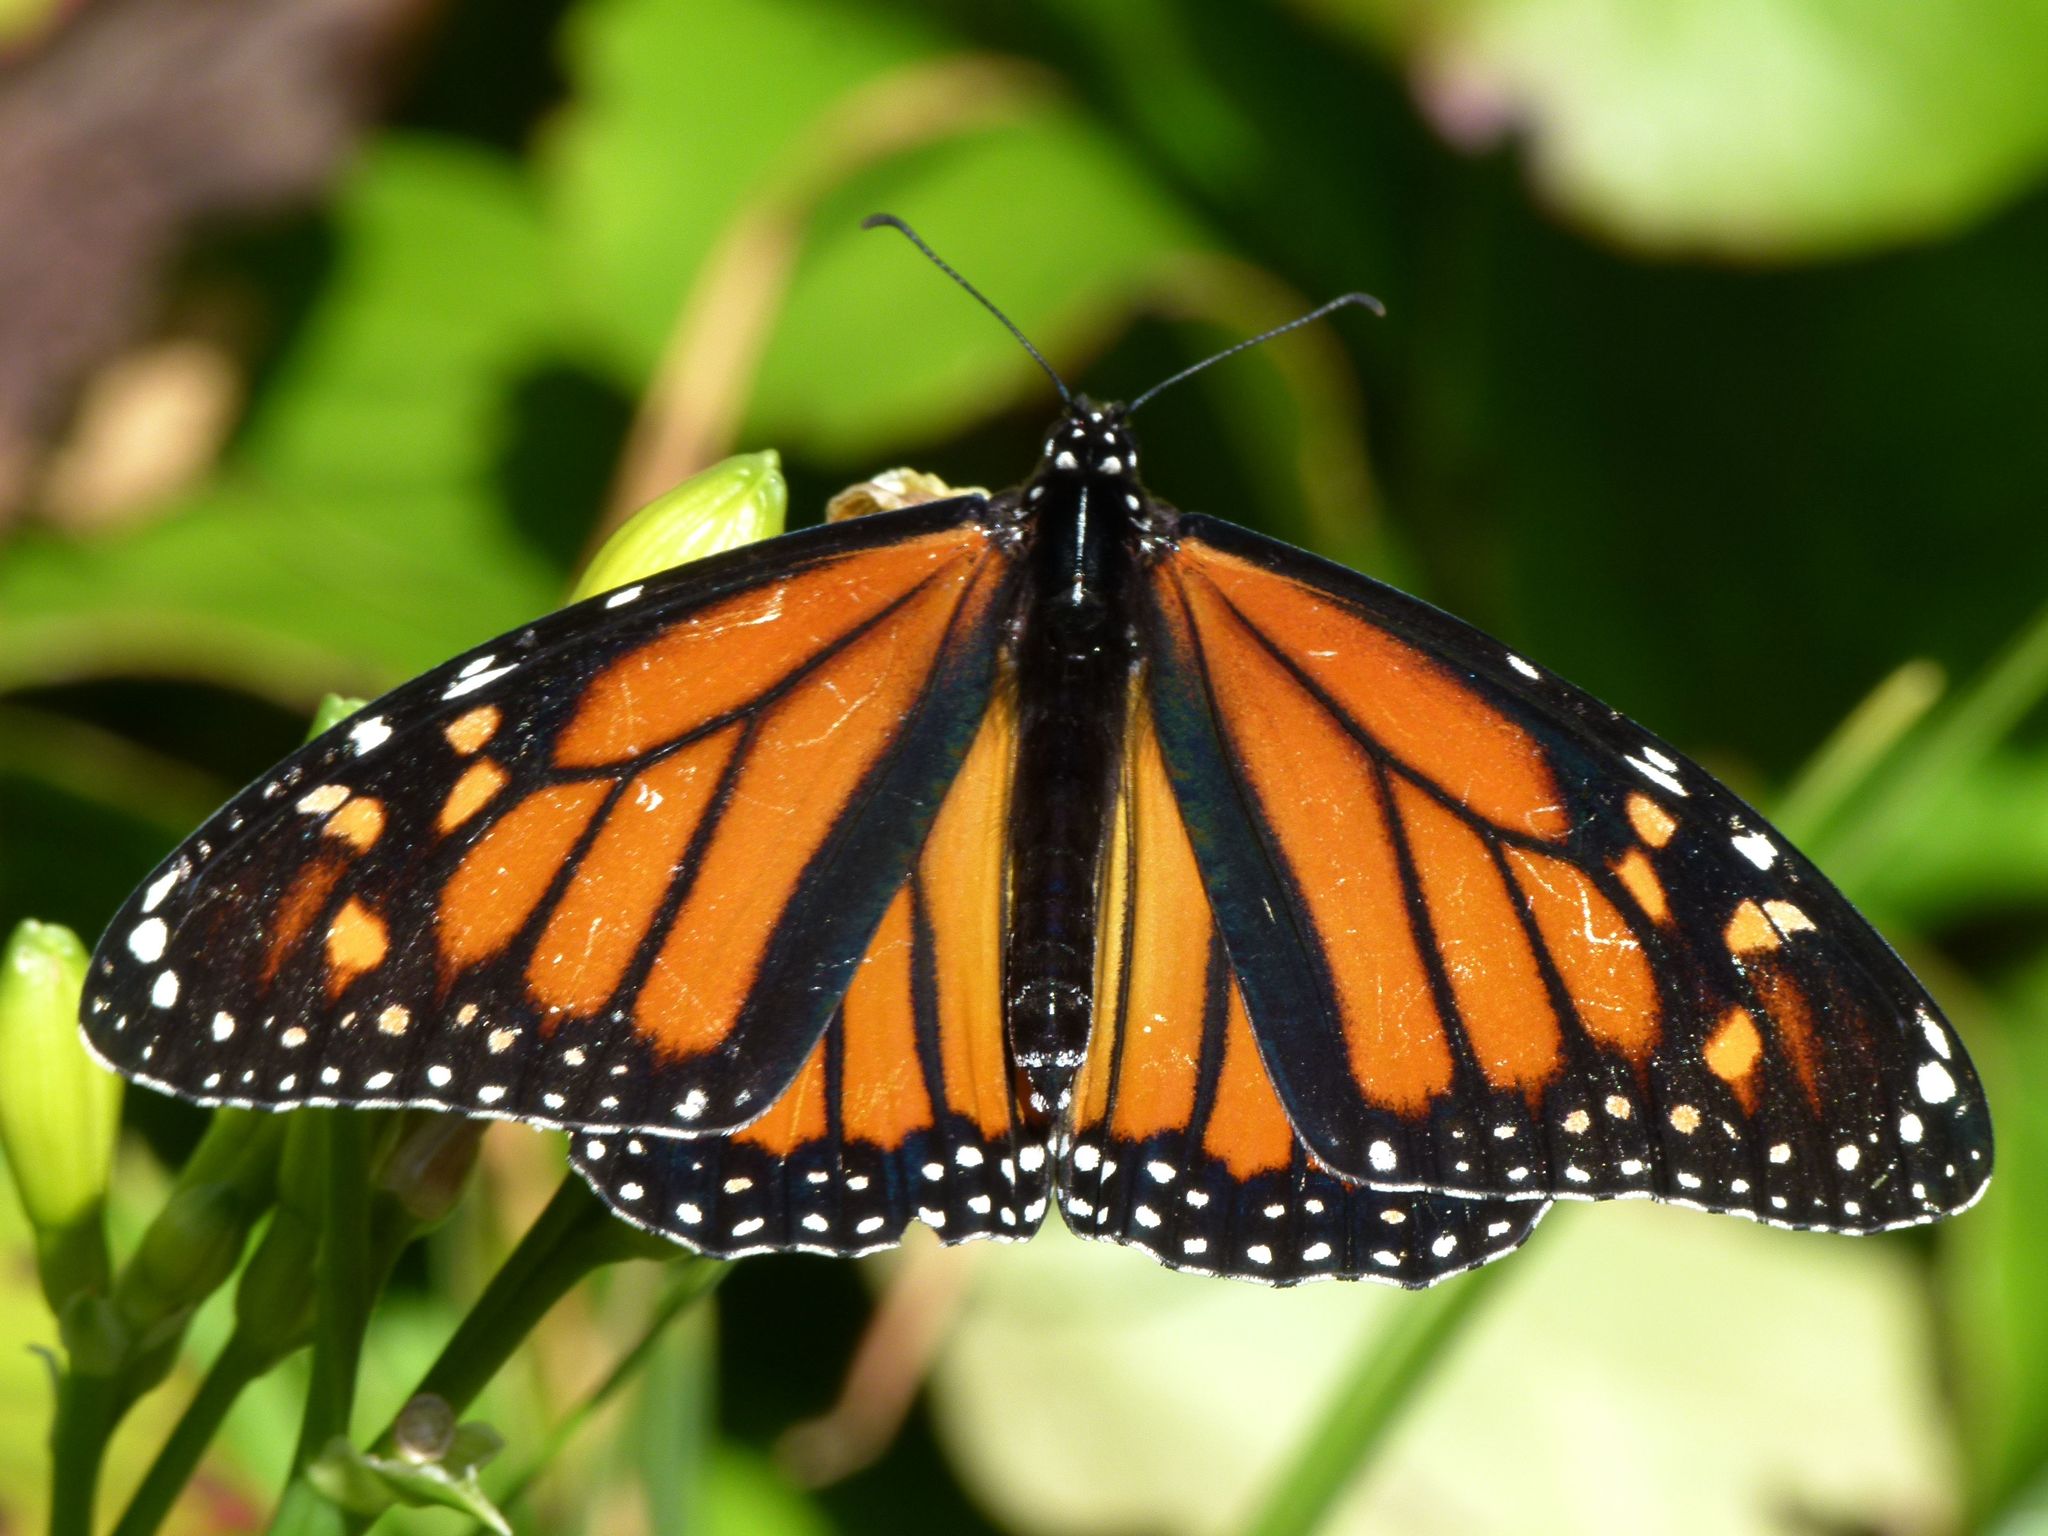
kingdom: Animalia
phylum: Arthropoda
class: Insecta
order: Lepidoptera
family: Nymphalidae
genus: Danaus
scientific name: Danaus plexippus
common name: Monarch
